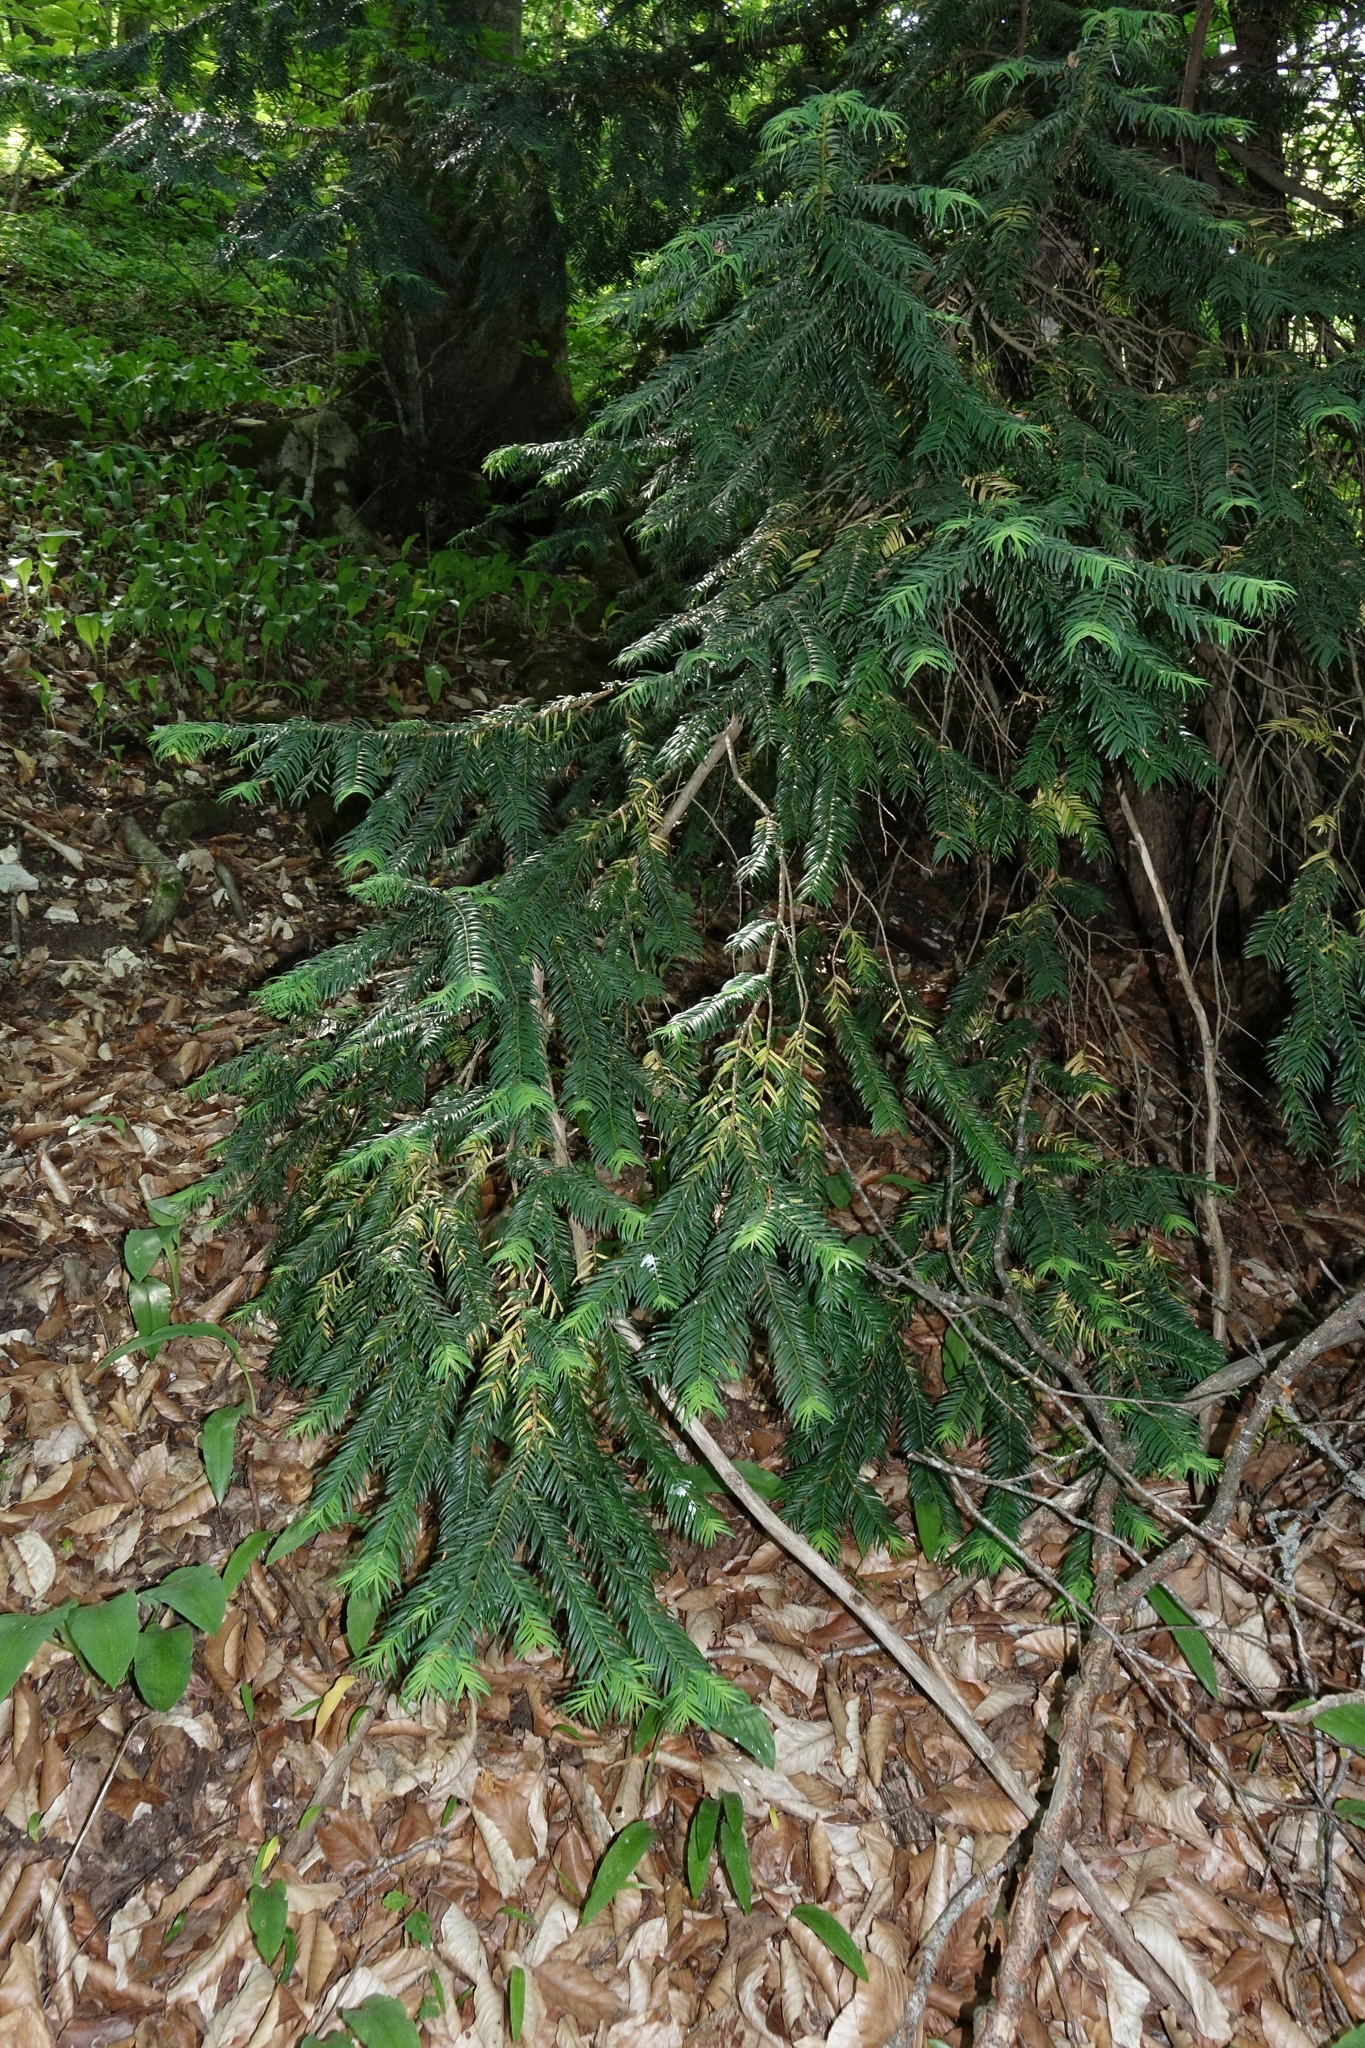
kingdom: Plantae
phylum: Tracheophyta
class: Pinopsida
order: Pinales
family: Taxaceae
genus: Taxus
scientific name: Taxus baccata
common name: Yew
